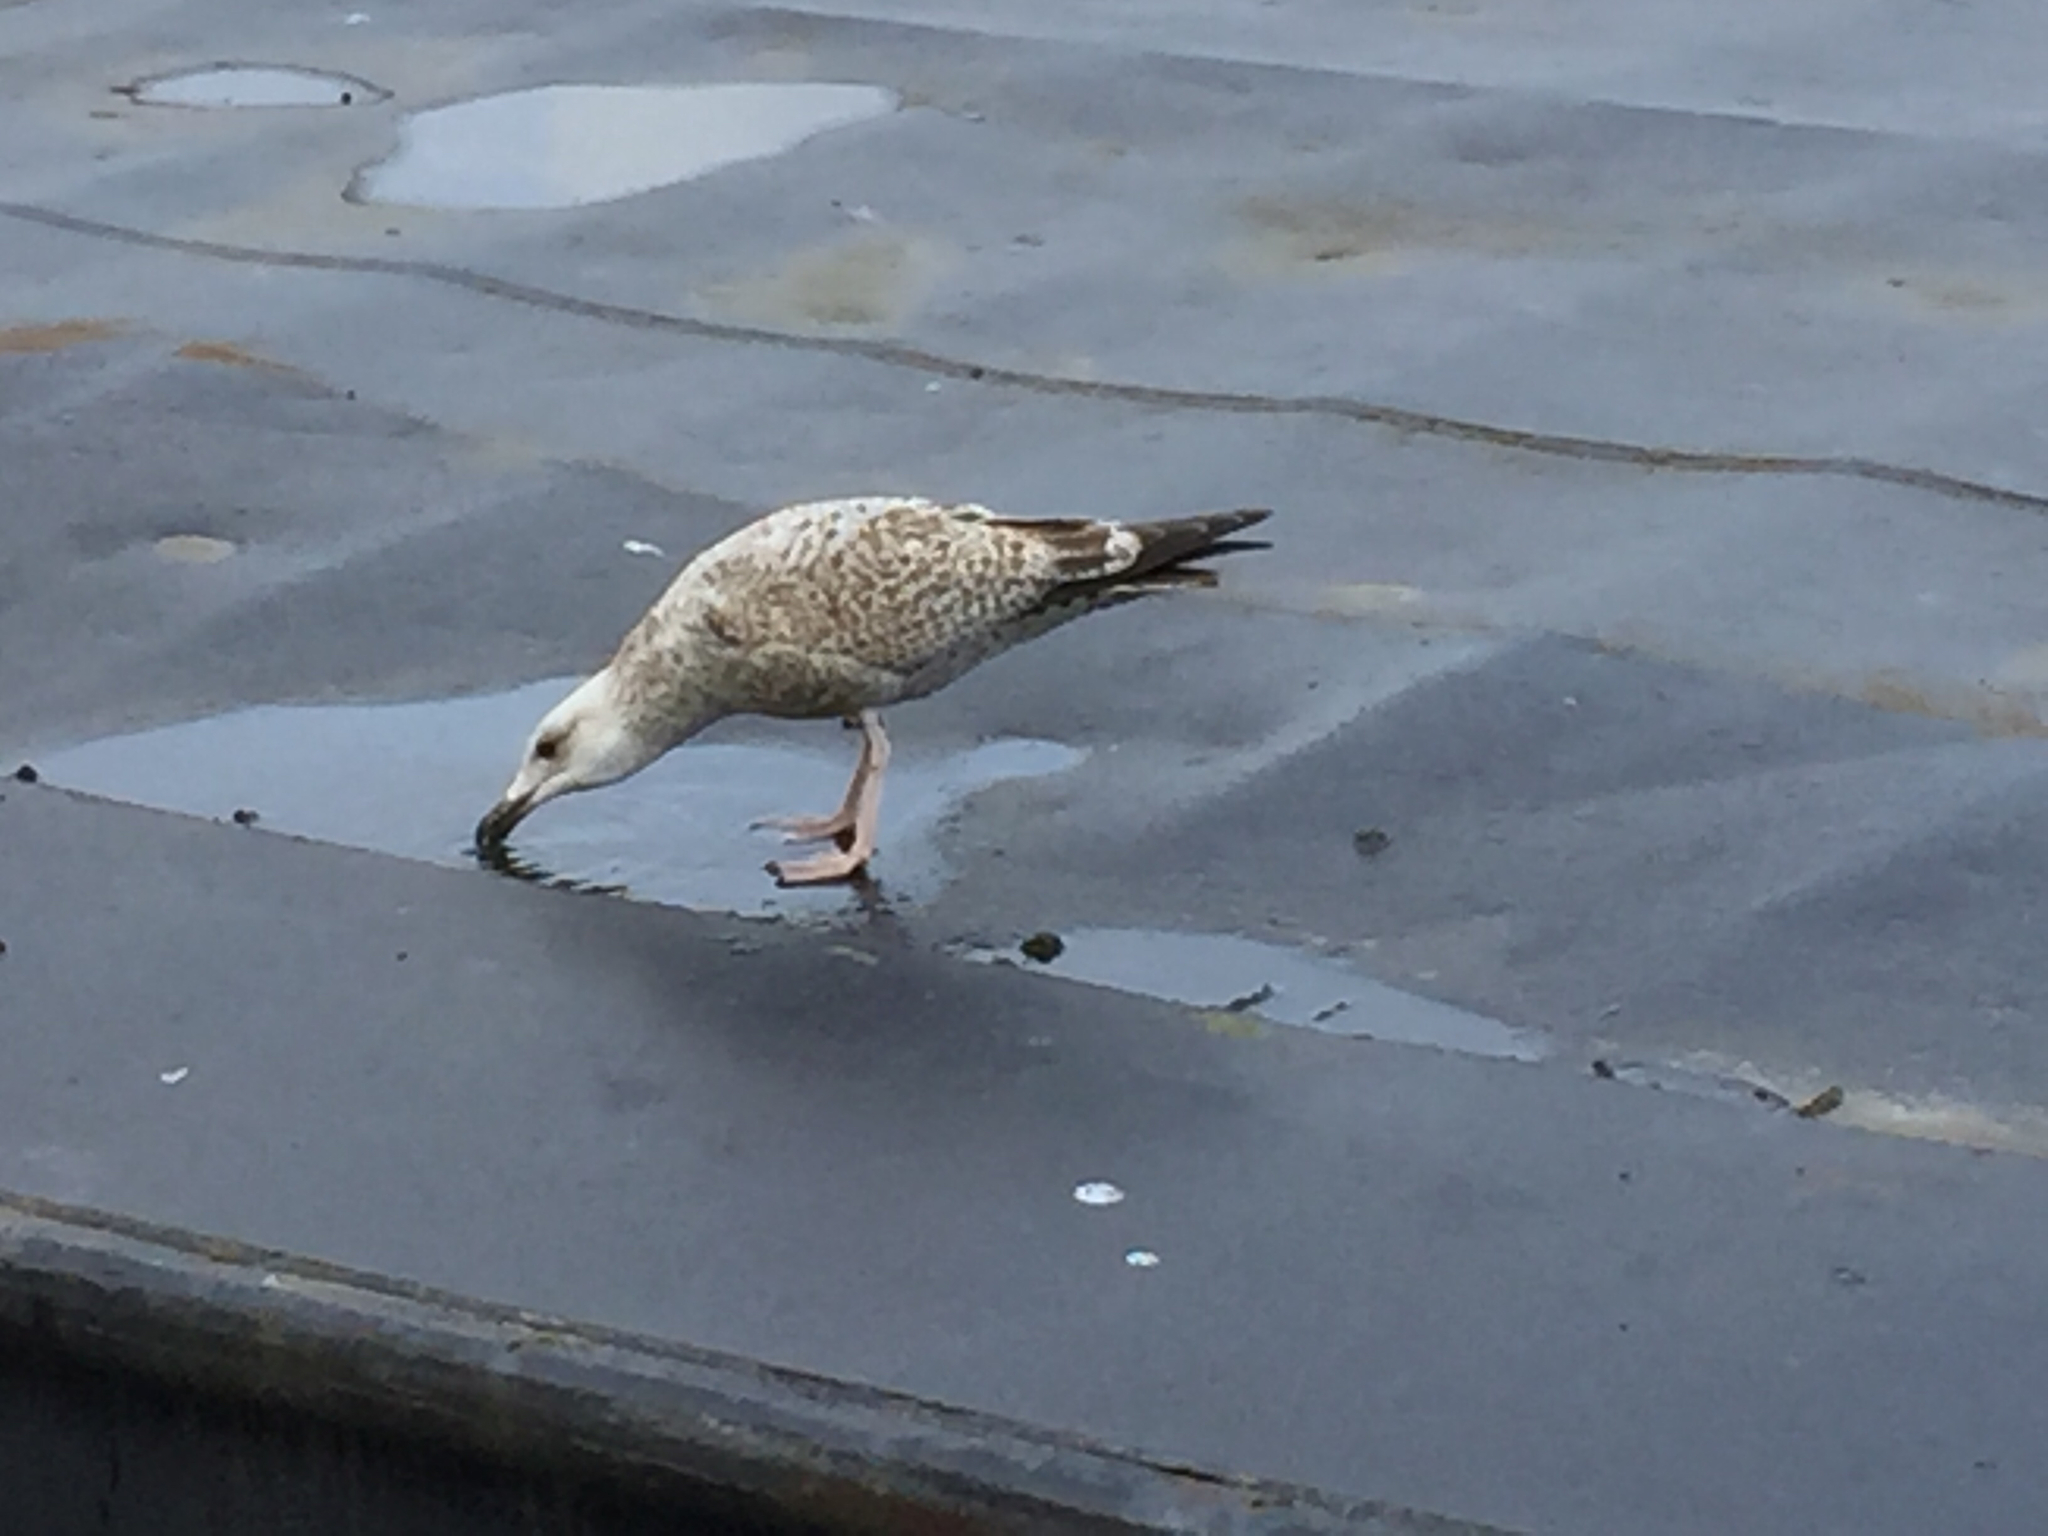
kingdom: Animalia
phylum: Chordata
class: Aves
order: Charadriiformes
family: Laridae
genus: Larus
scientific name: Larus argentatus
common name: Herring gull
